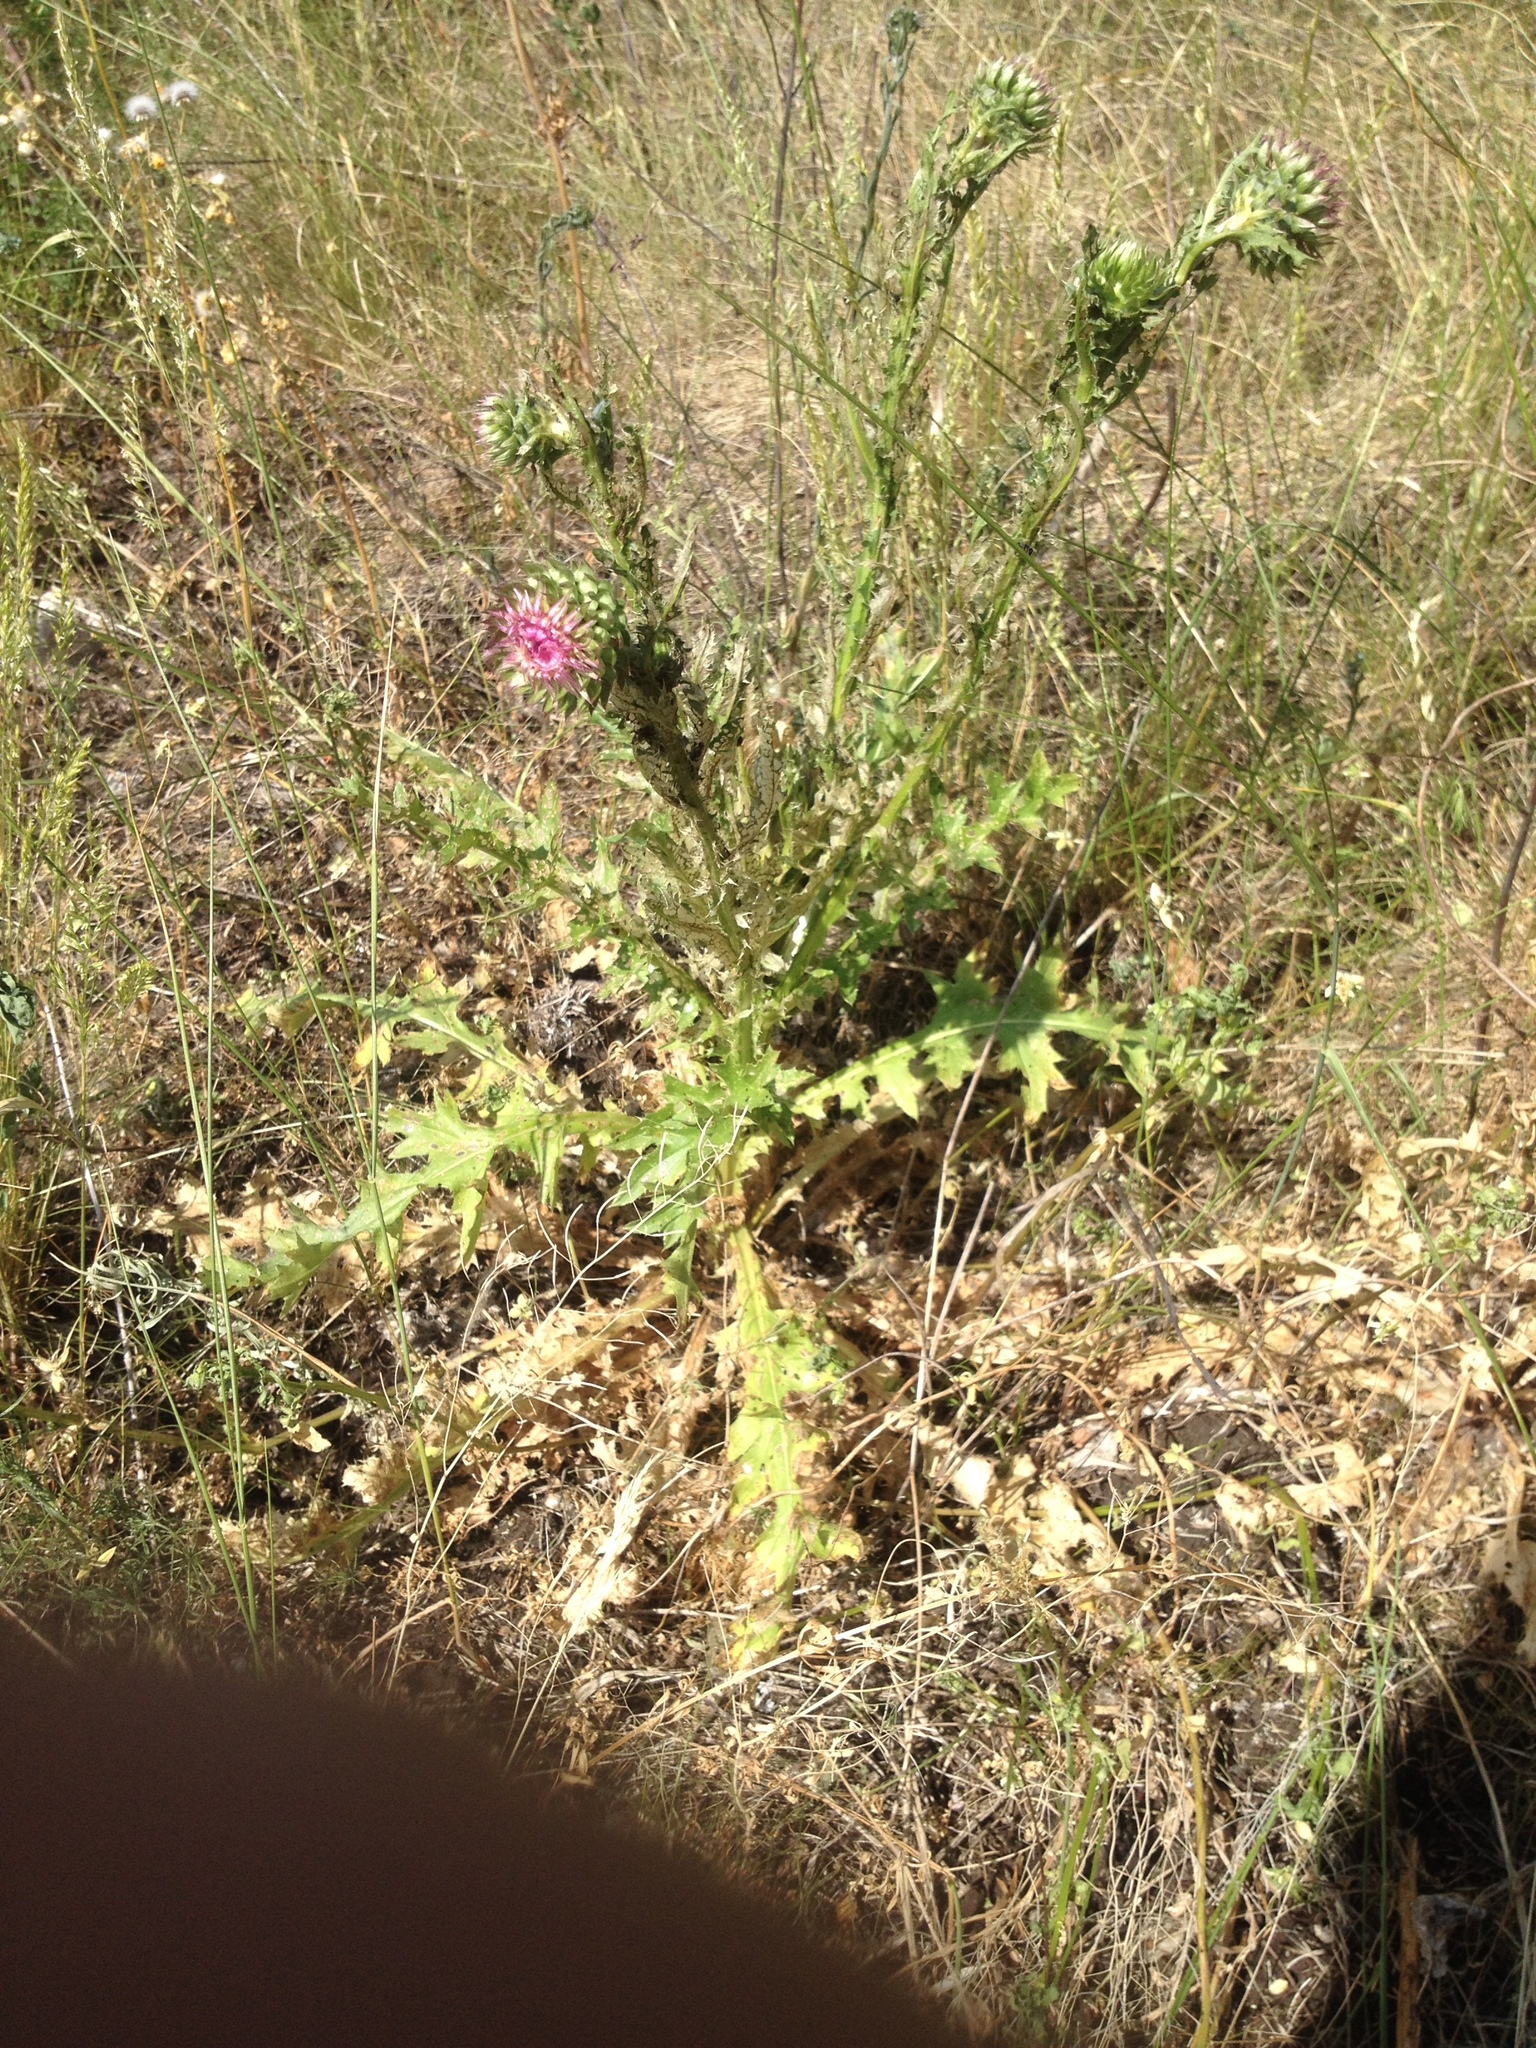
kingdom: Plantae
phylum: Tracheophyta
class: Magnoliopsida
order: Asterales
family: Asteraceae
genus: Carduus
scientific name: Carduus nutans
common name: Musk thistle
